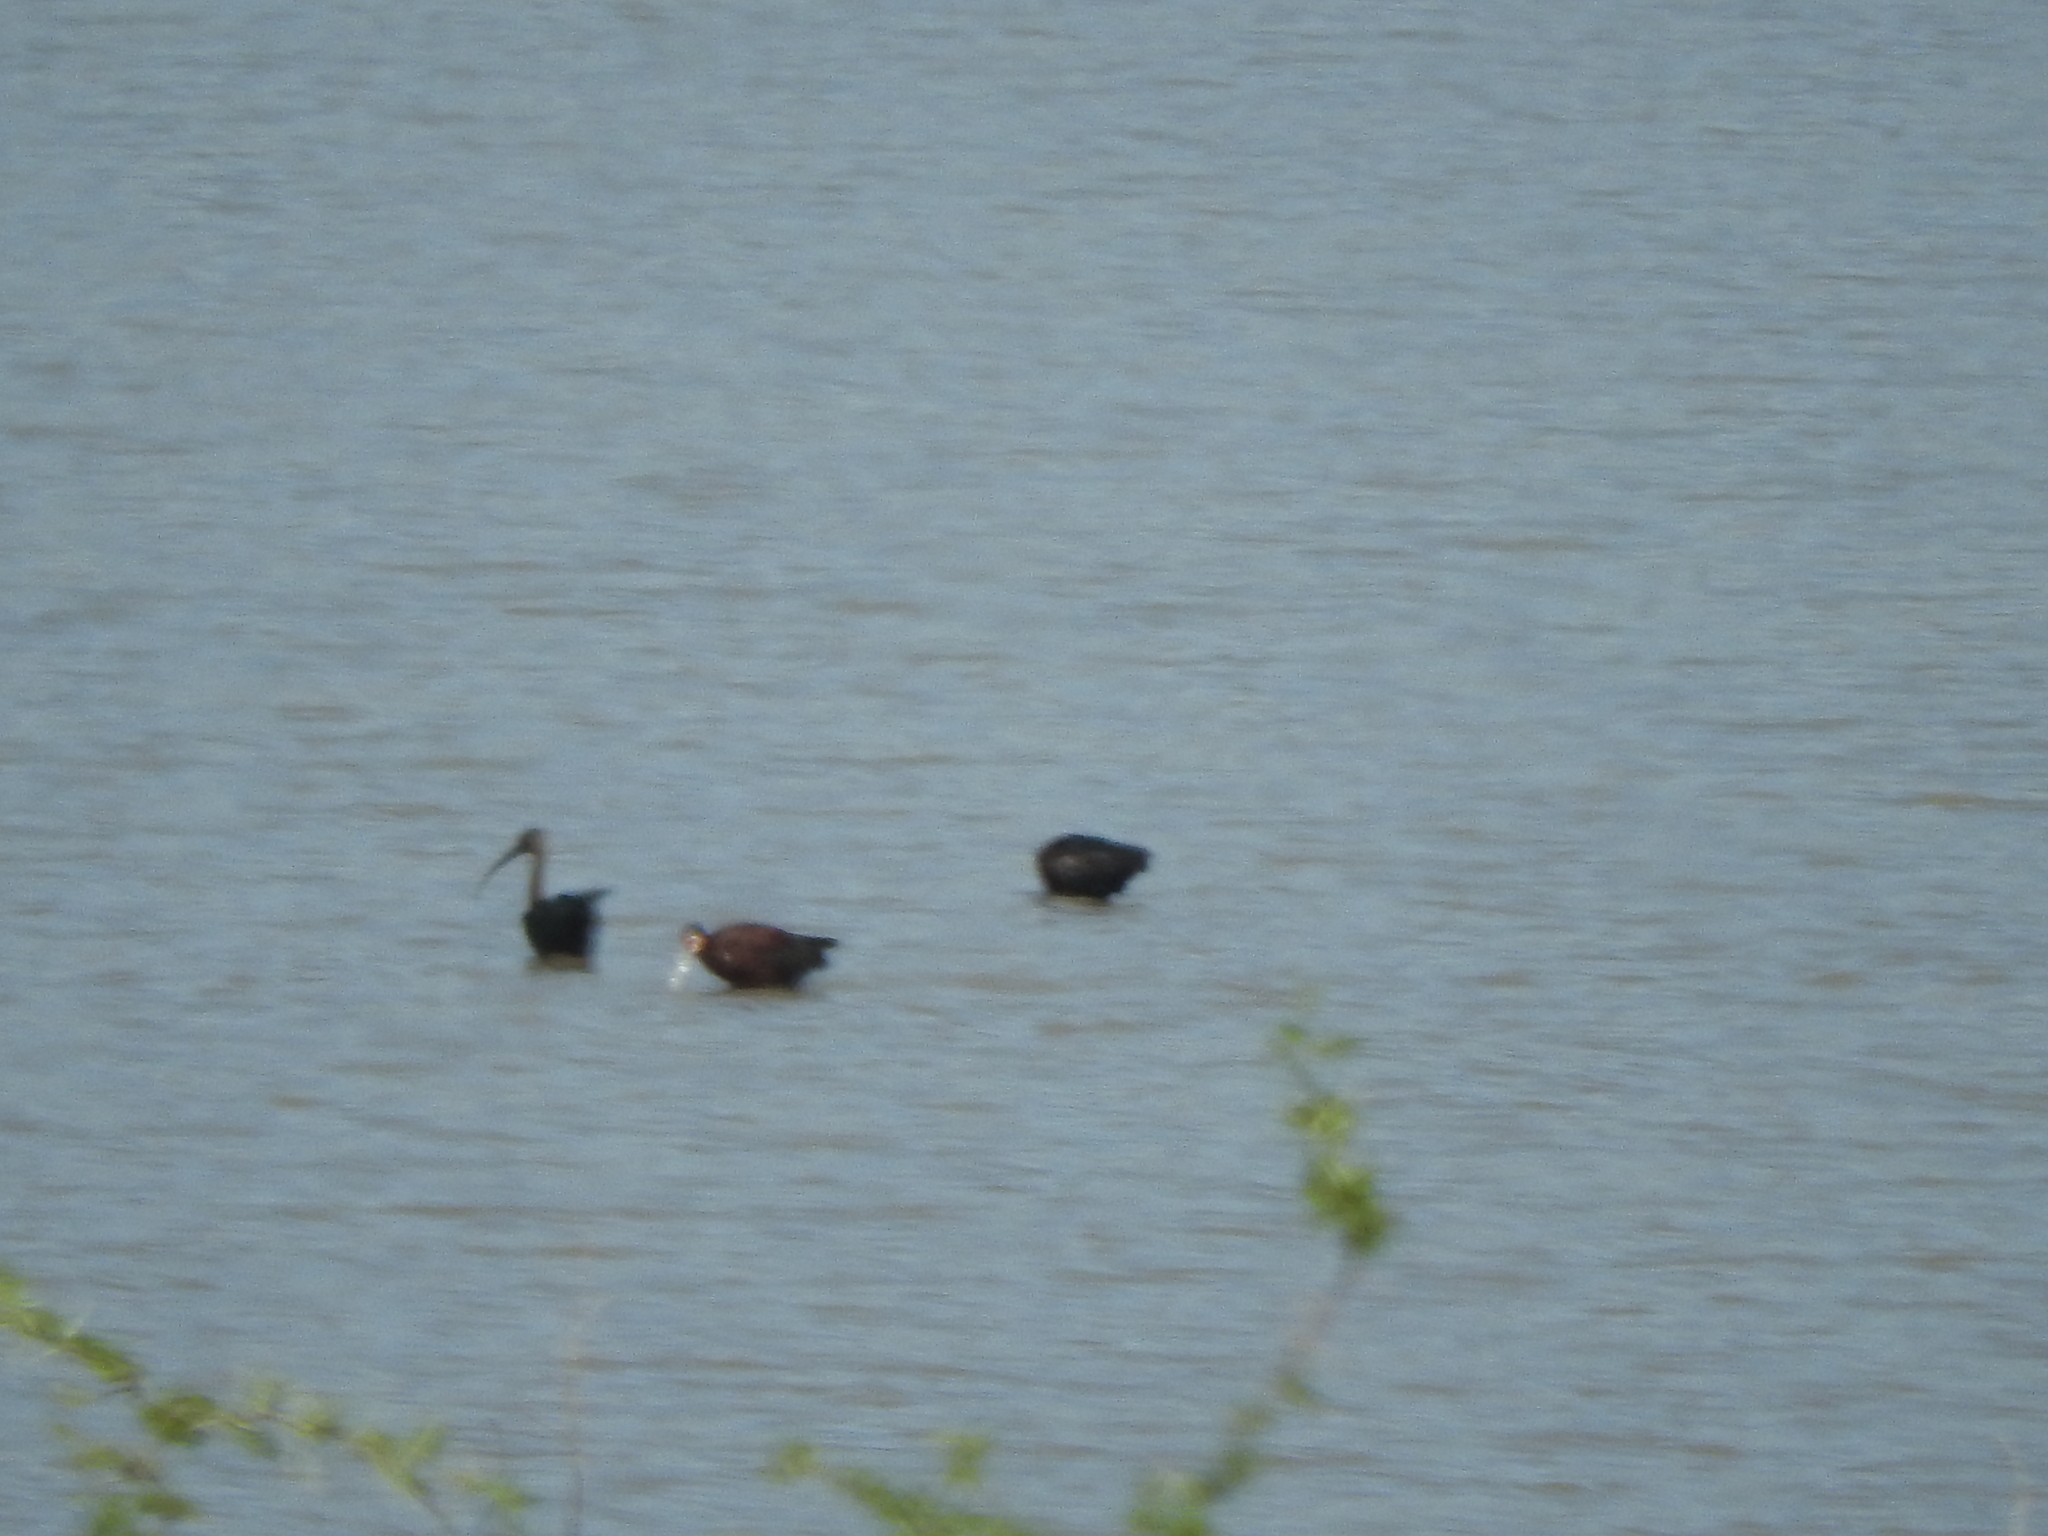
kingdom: Animalia
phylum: Chordata
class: Aves
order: Pelecaniformes
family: Threskiornithidae
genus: Plegadis
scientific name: Plegadis chihi
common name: White-faced ibis
